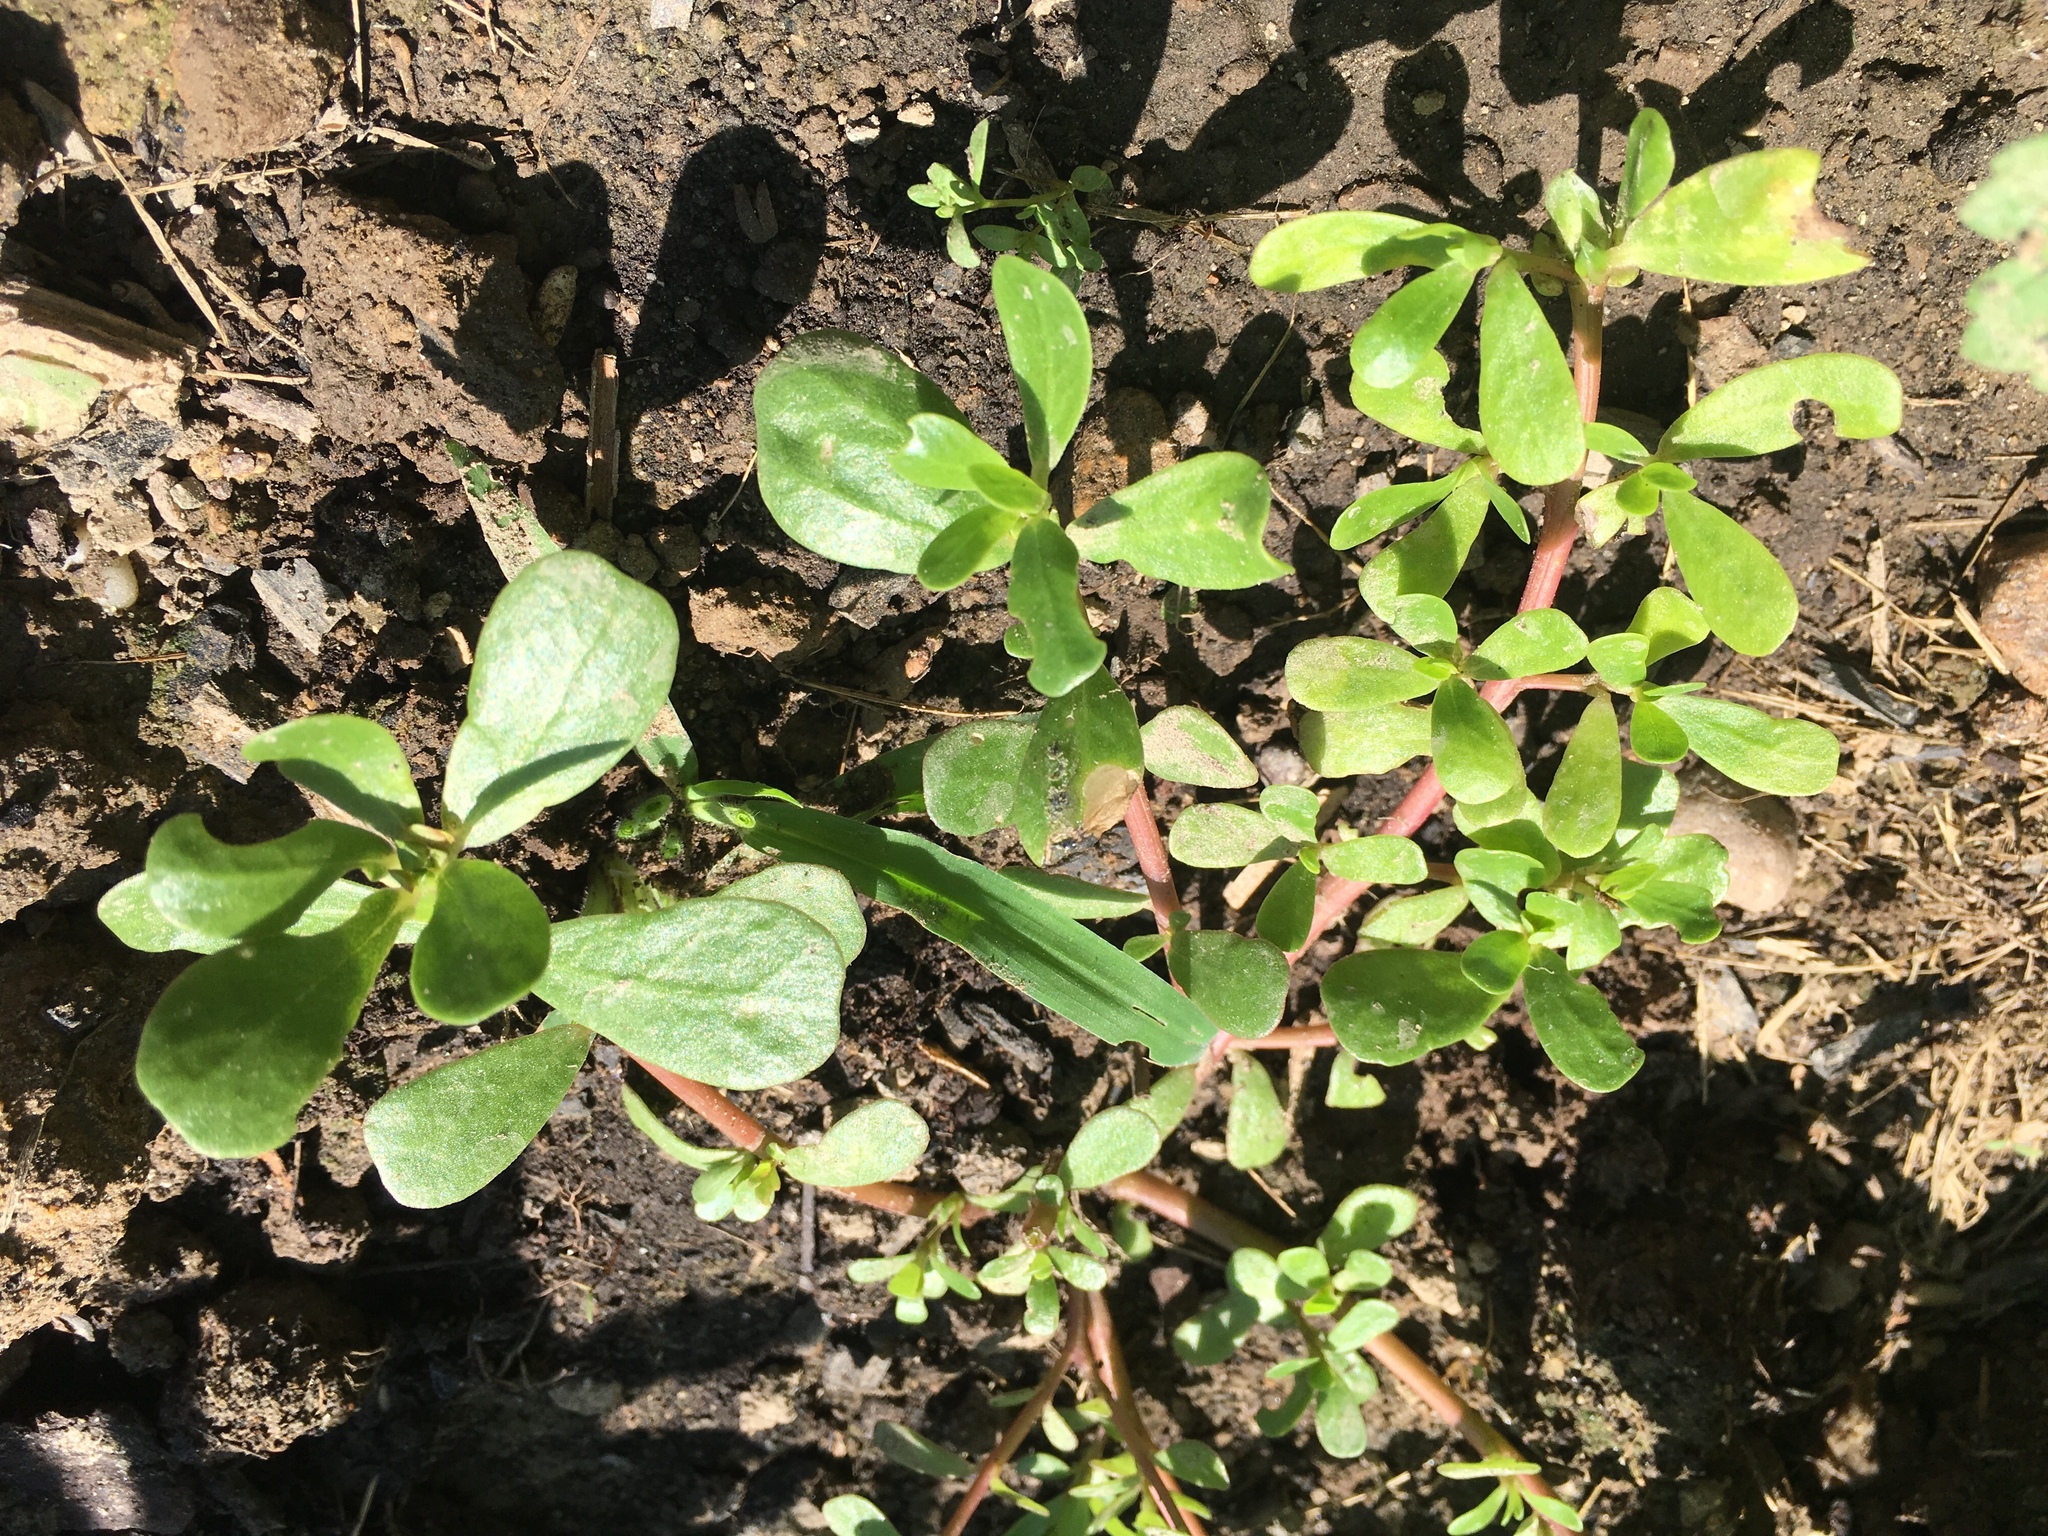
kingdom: Plantae
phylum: Tracheophyta
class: Magnoliopsida
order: Caryophyllales
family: Portulacaceae
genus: Portulaca
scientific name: Portulaca oleracea
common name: Common purslane
